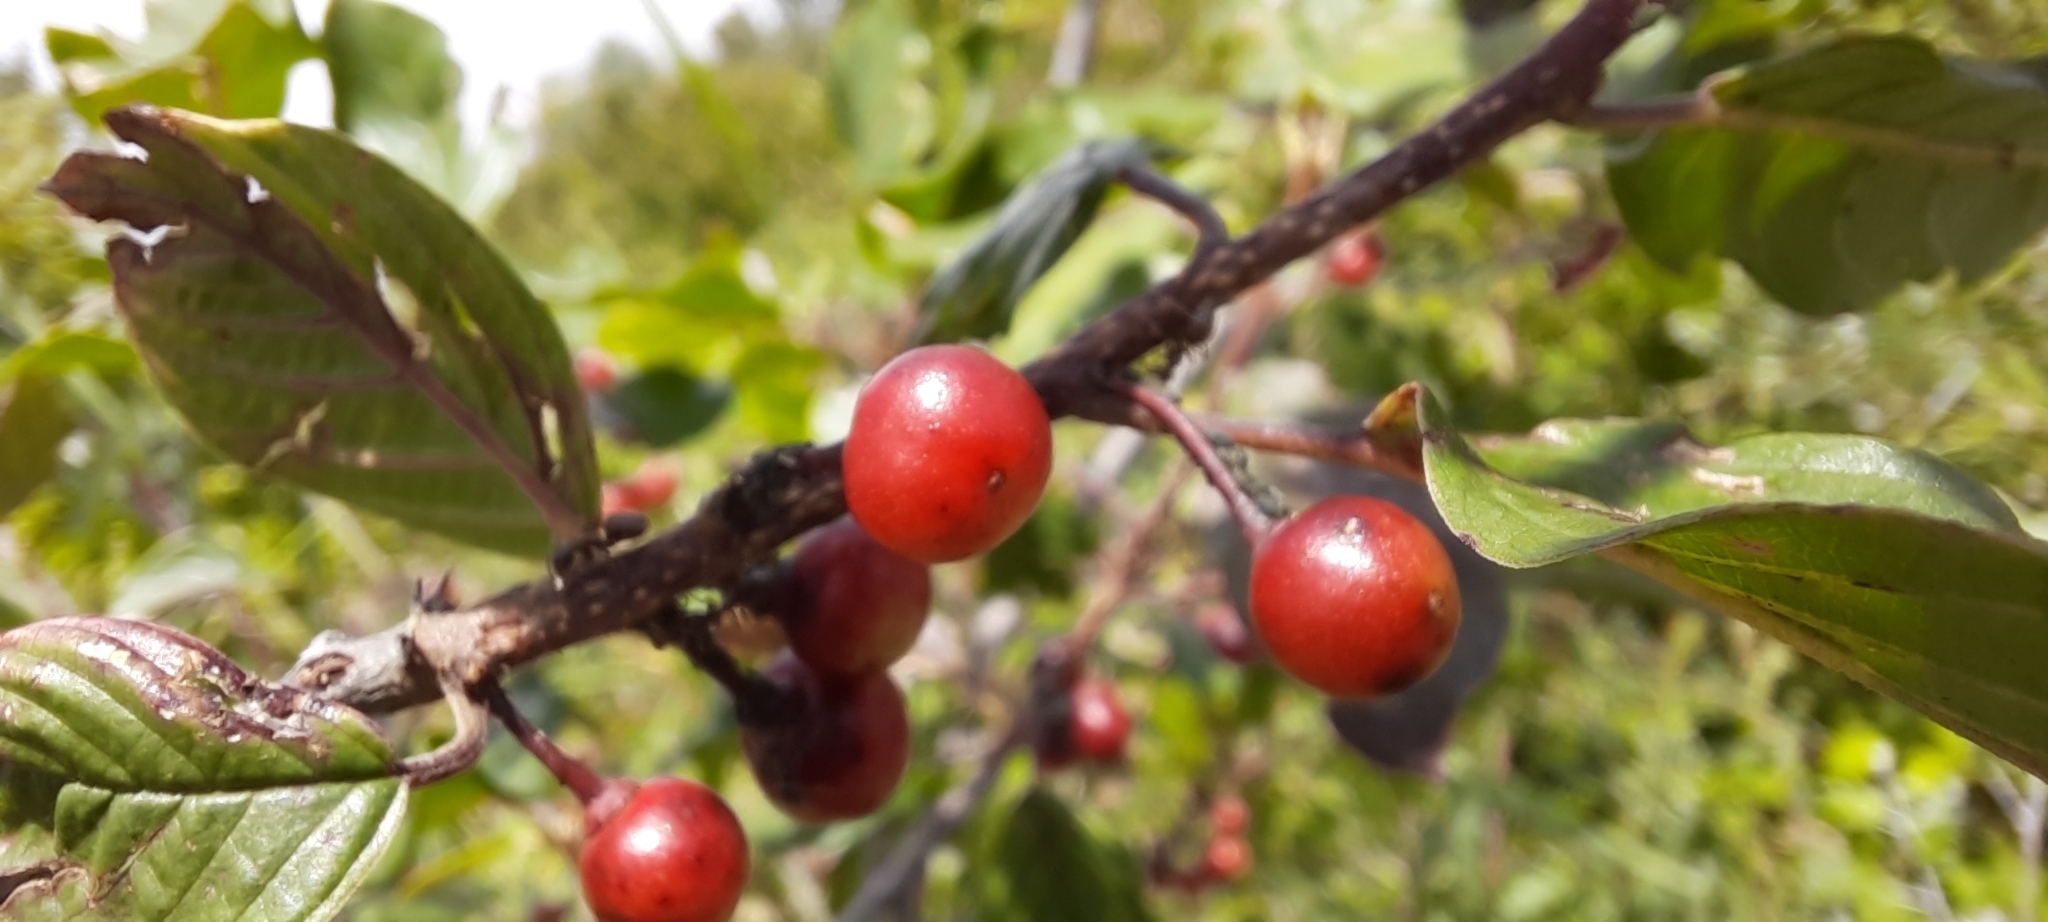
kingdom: Plantae
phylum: Tracheophyta
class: Magnoliopsida
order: Rosales
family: Rhamnaceae
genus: Frangula
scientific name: Frangula alnus
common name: Alder buckthorn
